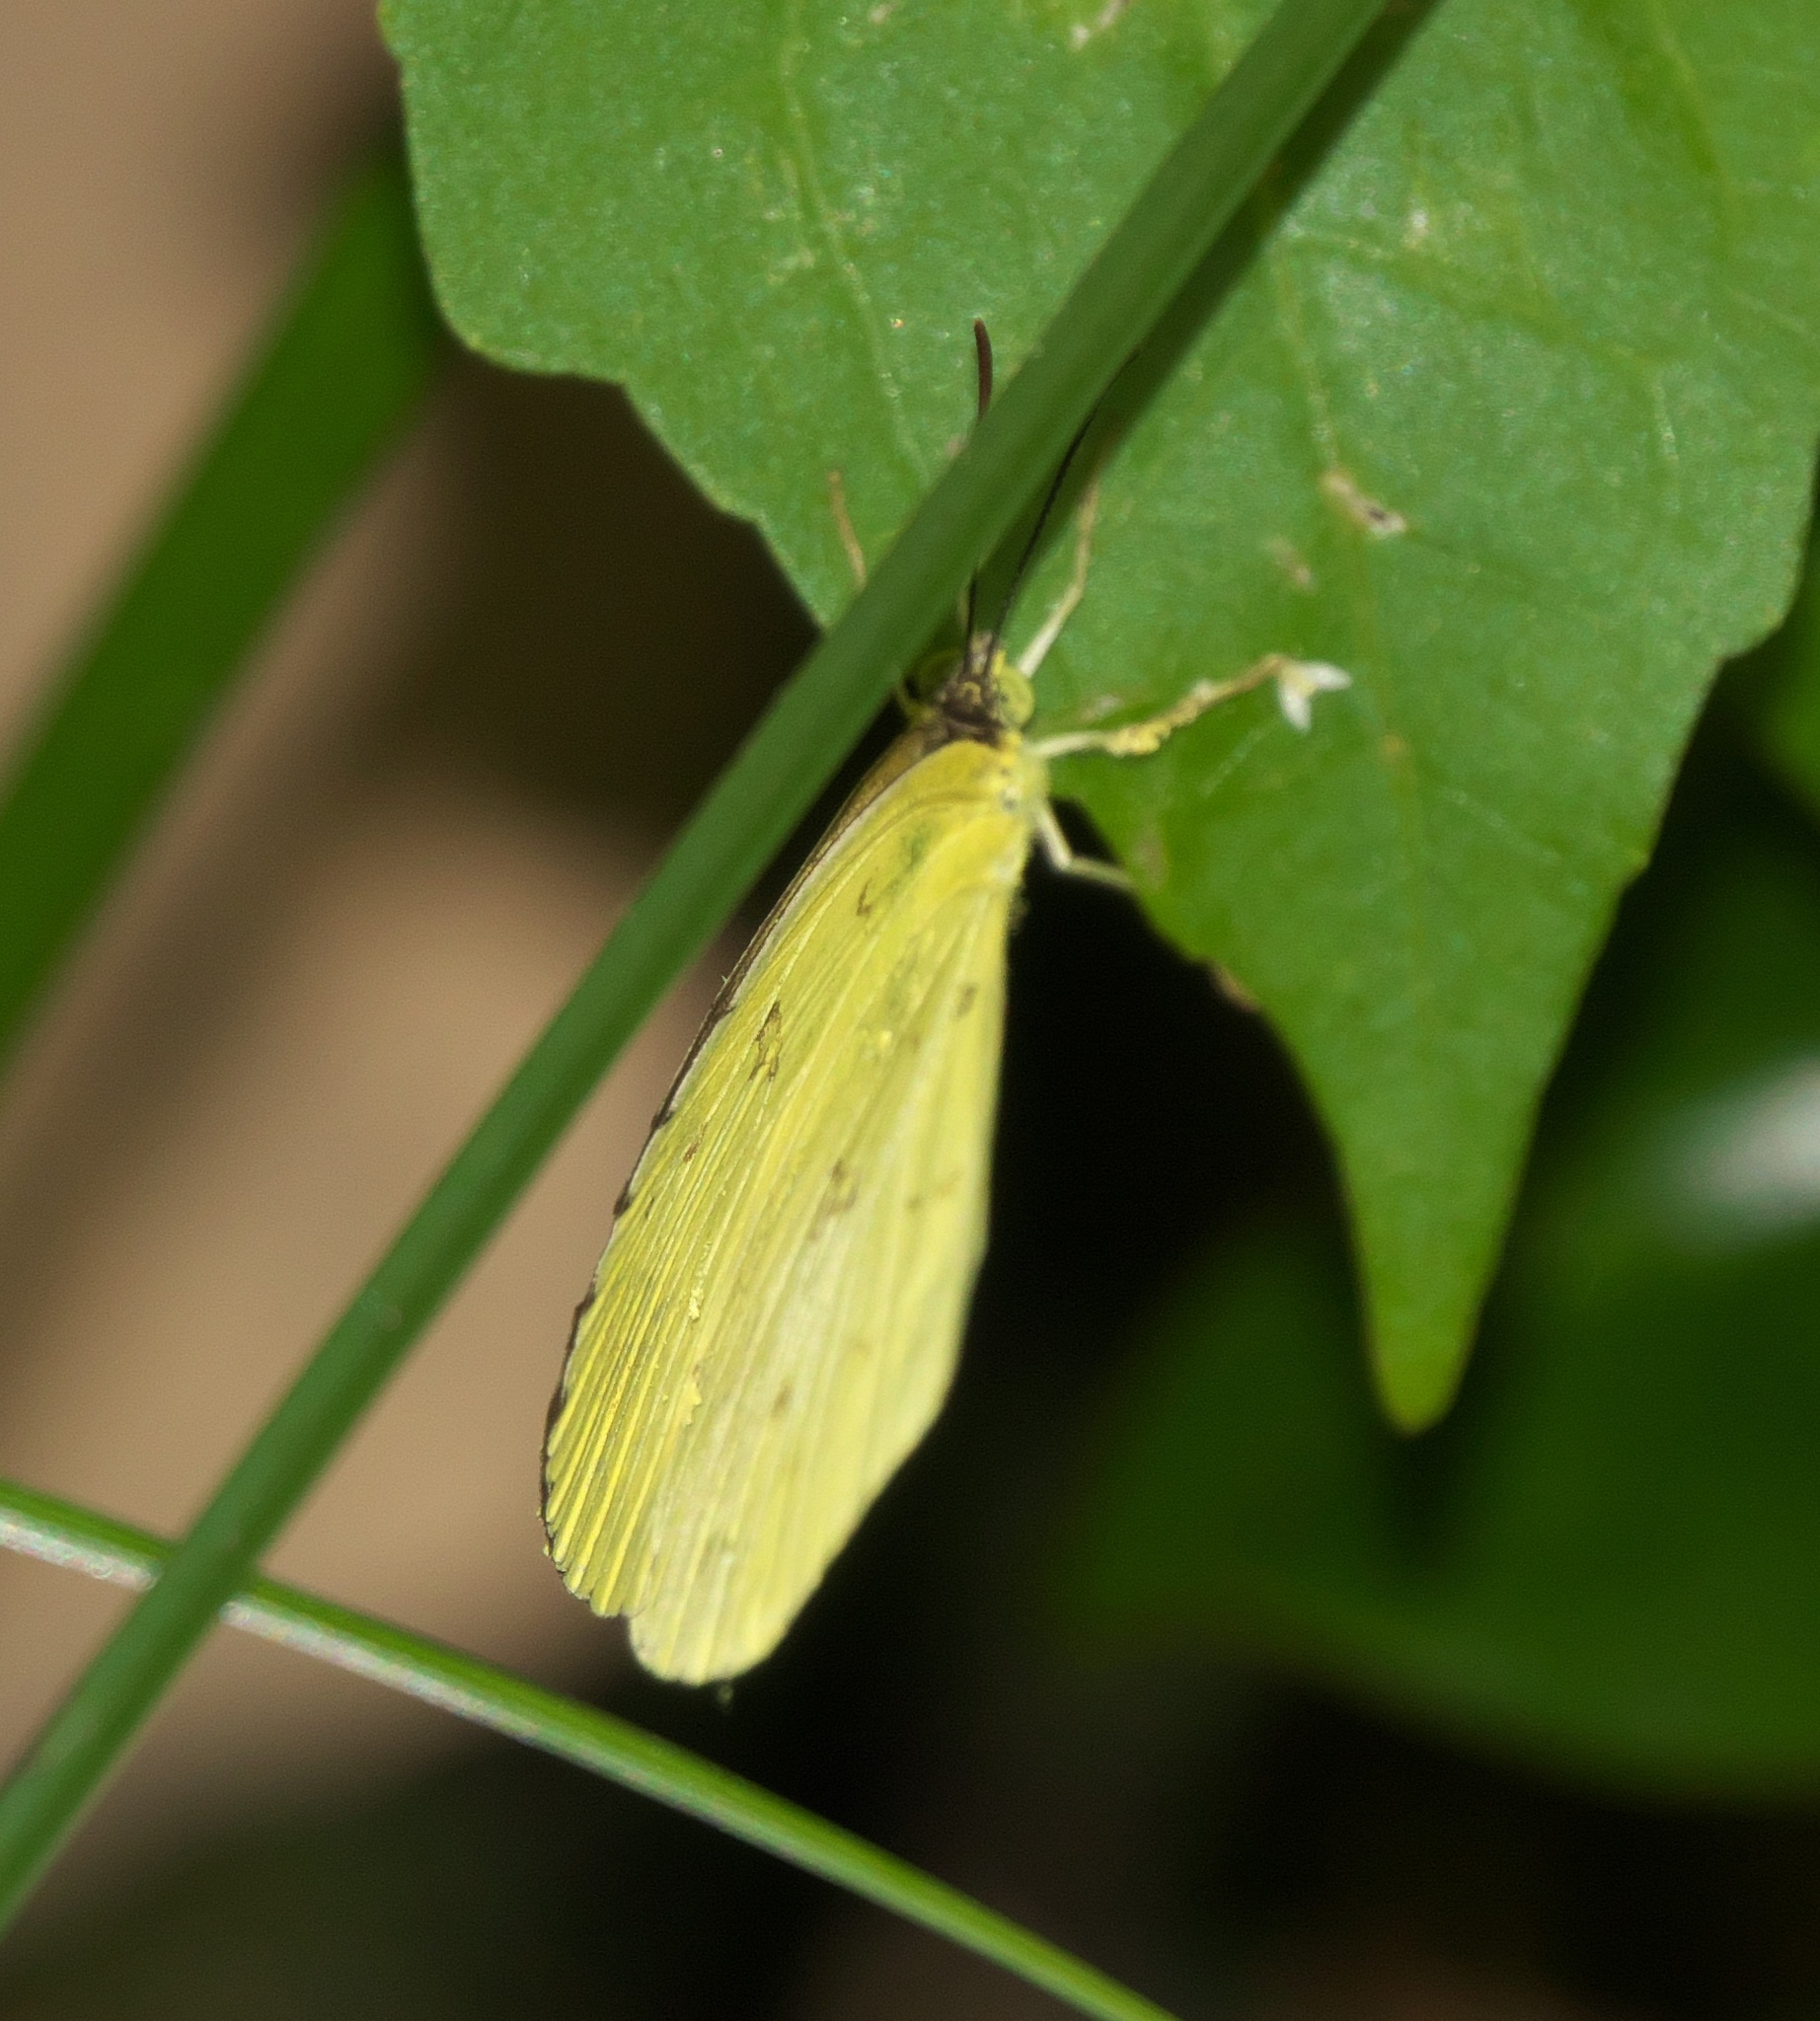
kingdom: Animalia
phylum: Arthropoda
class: Insecta
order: Lepidoptera
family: Pieridae
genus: Eurema
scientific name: Eurema hecabe
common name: Pale grass yellow
